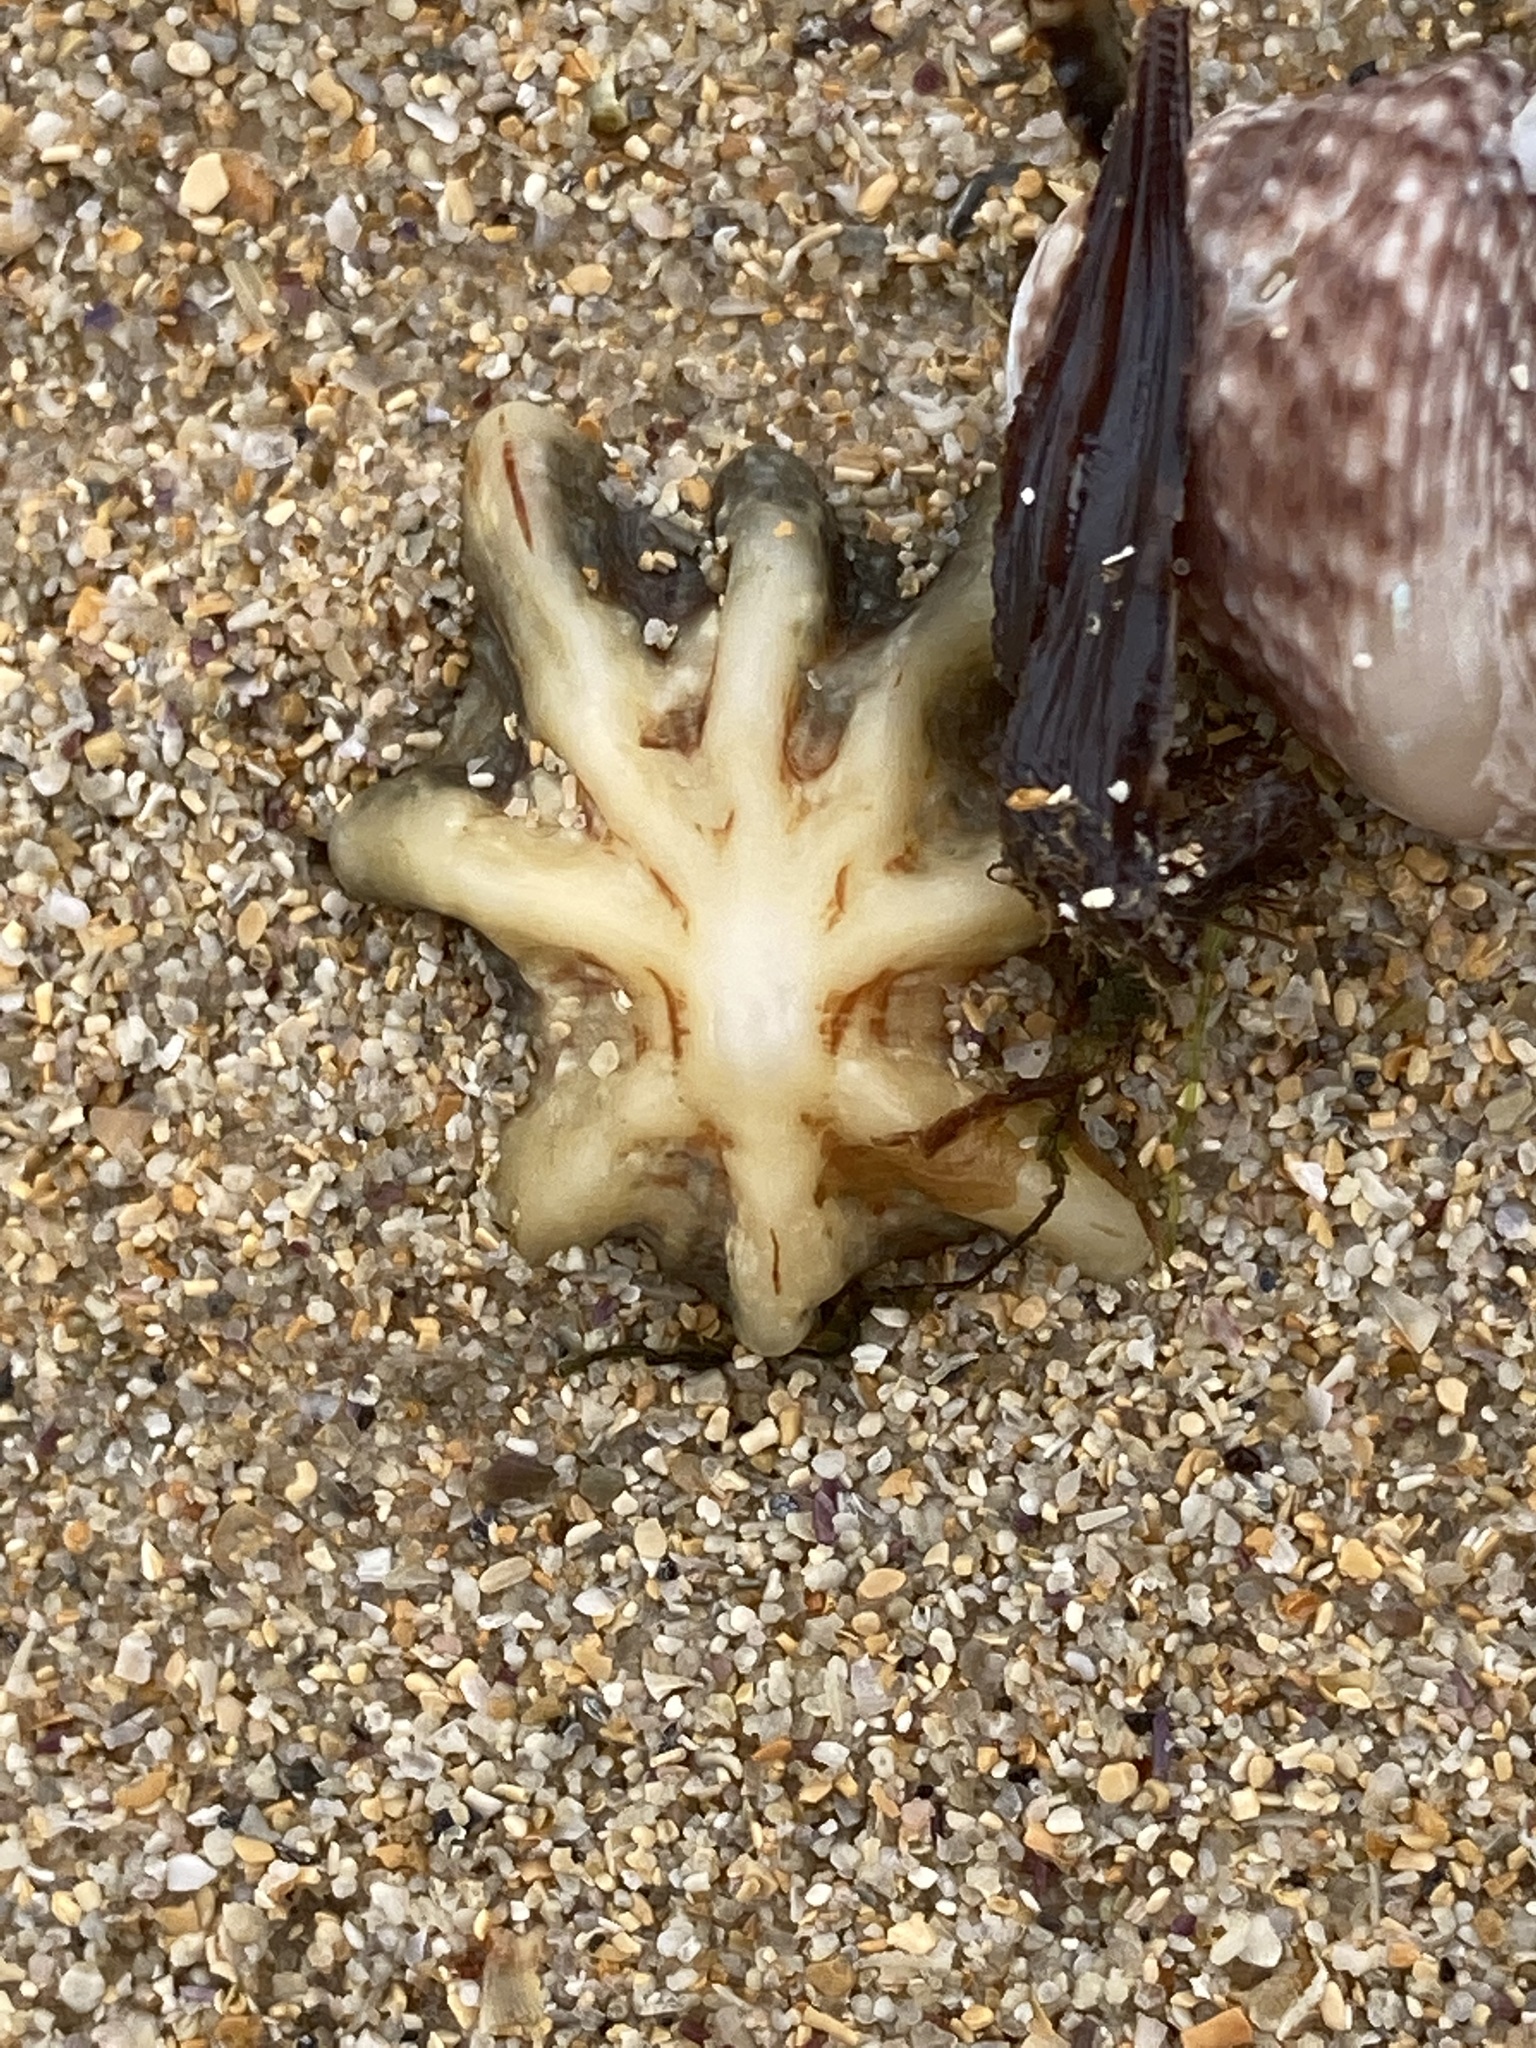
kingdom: Animalia
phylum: Mollusca
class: Gastropoda
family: Patellidae
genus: Scutellastra
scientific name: Scutellastra chapmani
